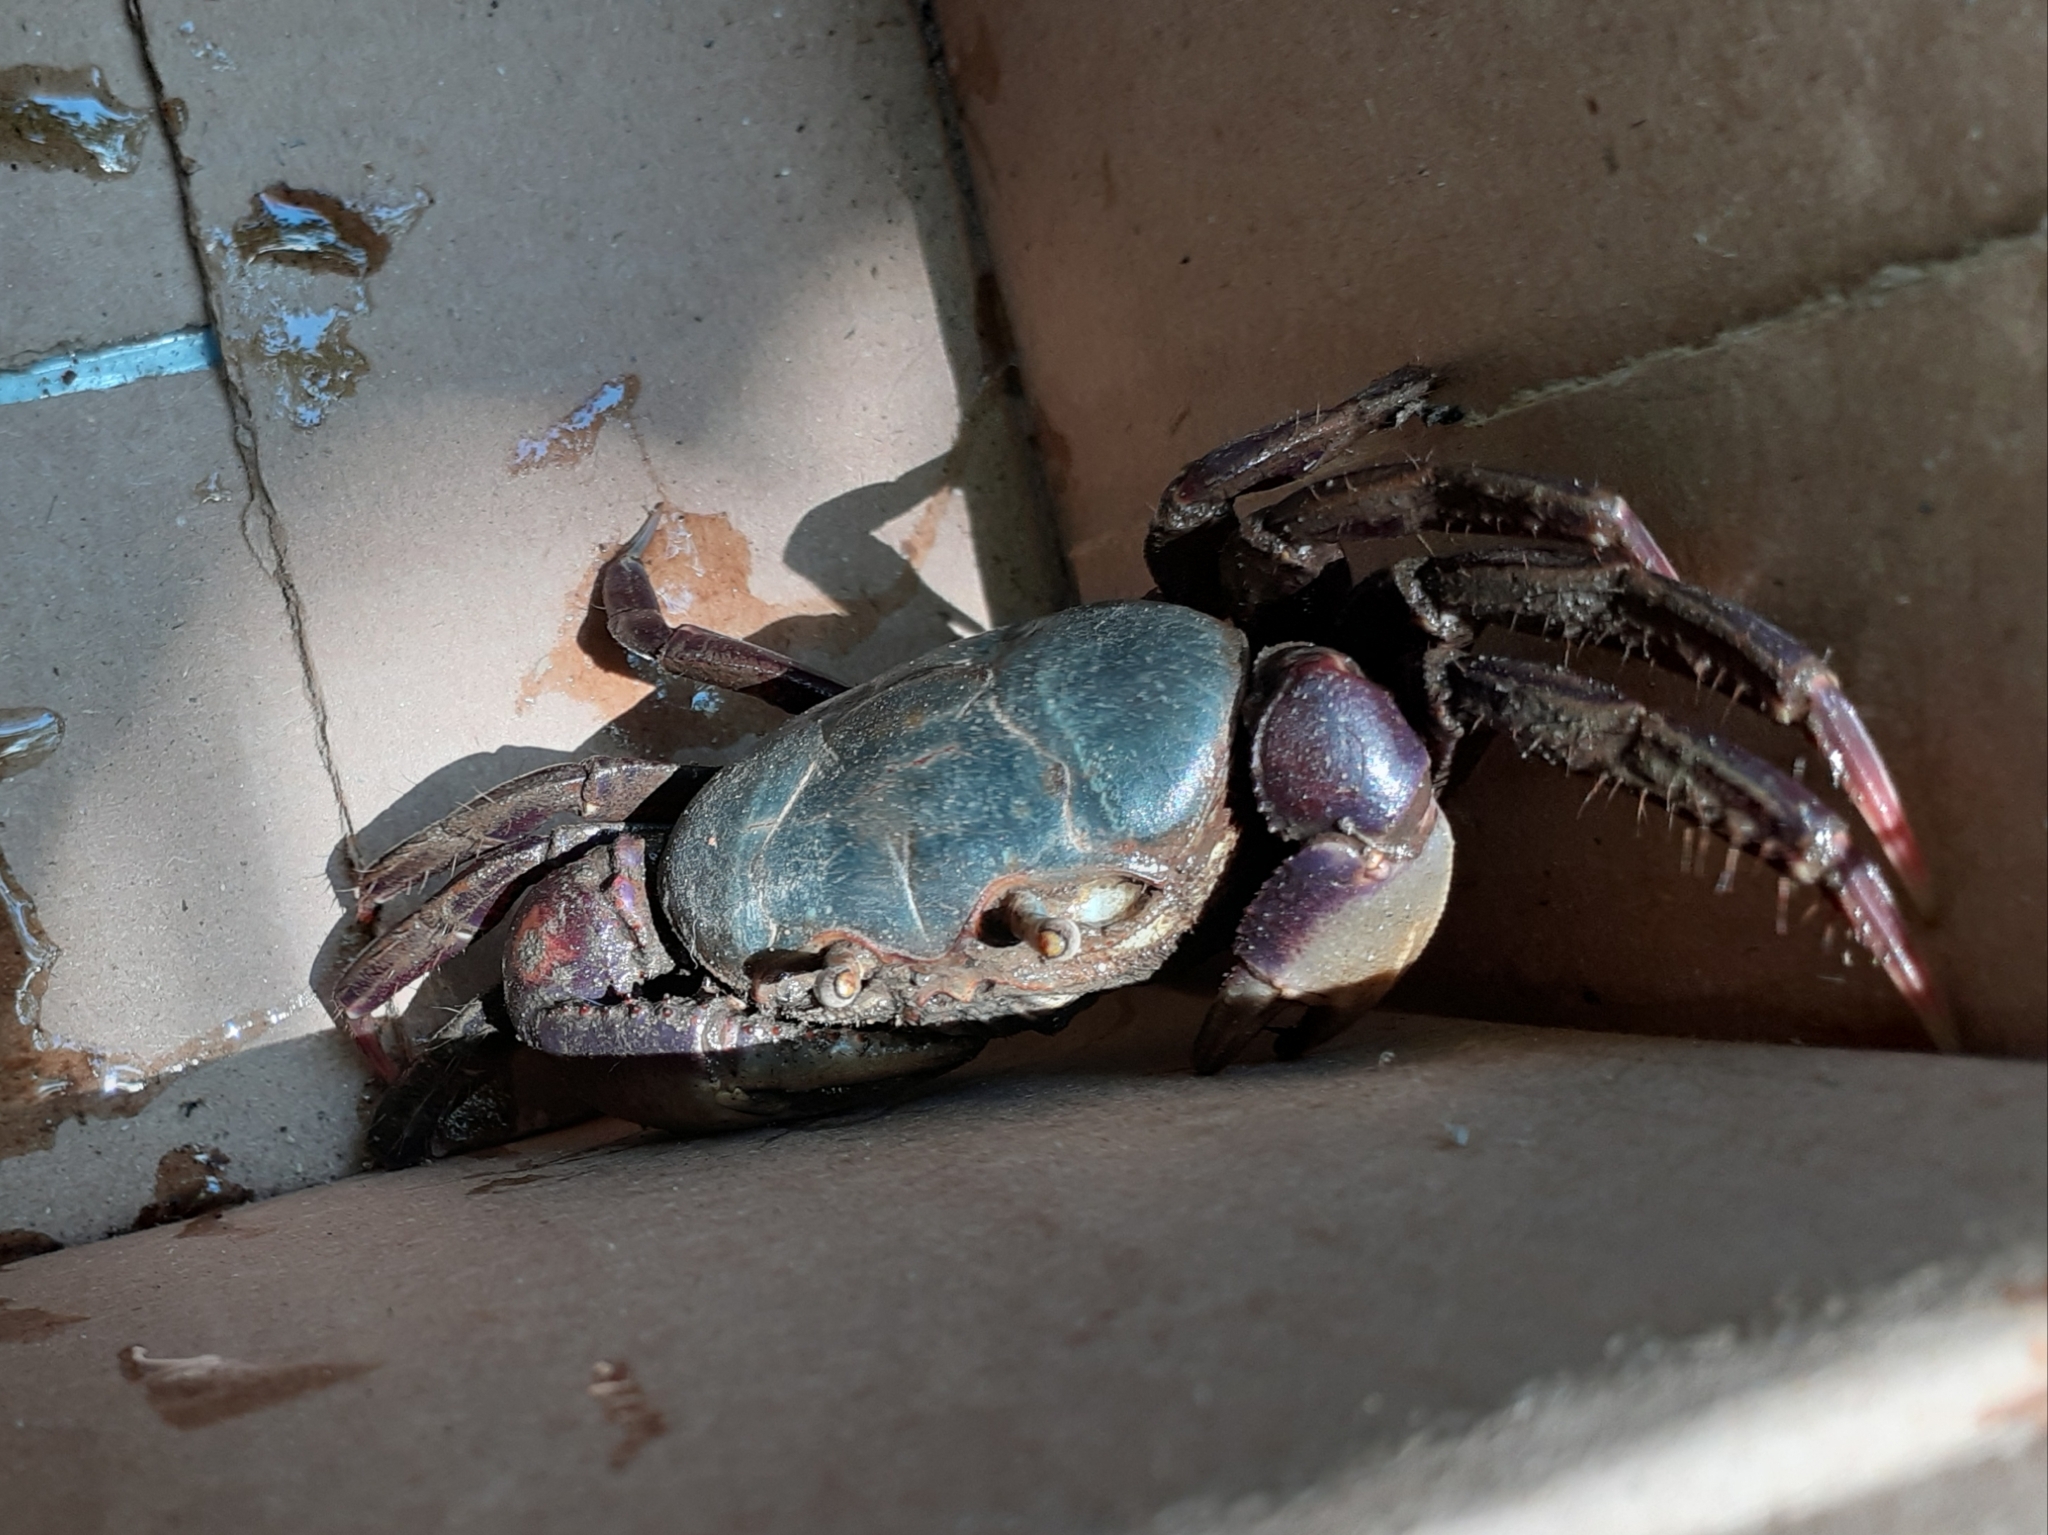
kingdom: Animalia
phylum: Arthropoda
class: Malacostraca
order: Decapoda
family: Ocypodidae
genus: Ucides
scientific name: Ucides cordatus
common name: Swamp ghost crab
